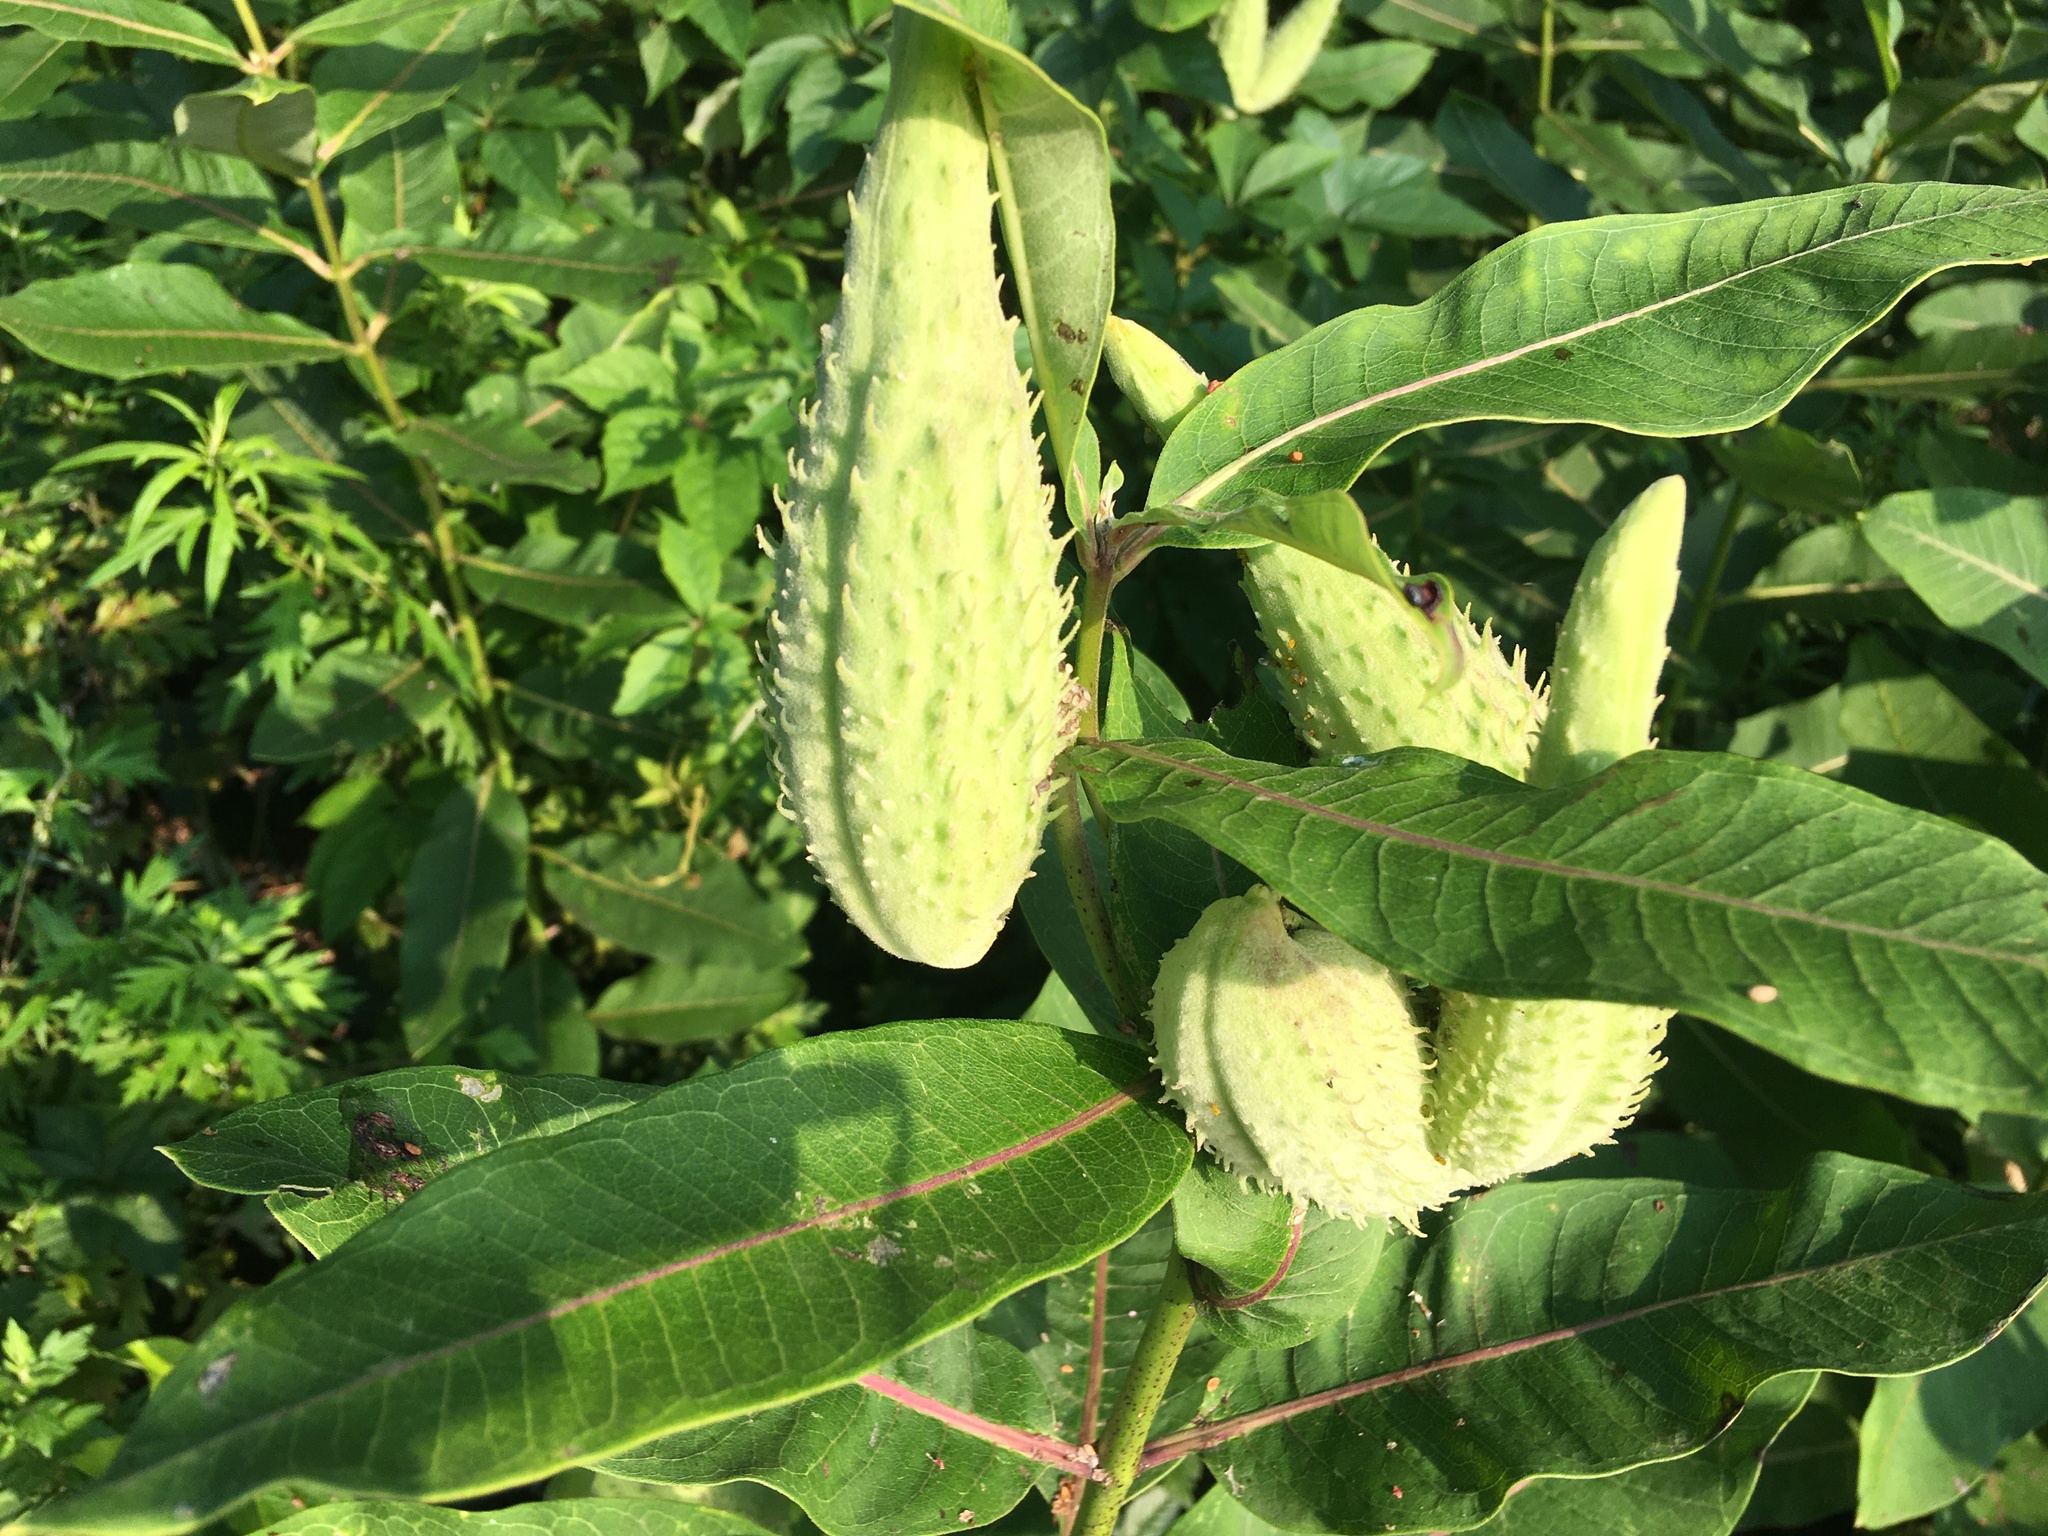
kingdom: Plantae
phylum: Tracheophyta
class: Magnoliopsida
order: Gentianales
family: Apocynaceae
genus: Asclepias
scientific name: Asclepias syriaca
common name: Common milkweed
